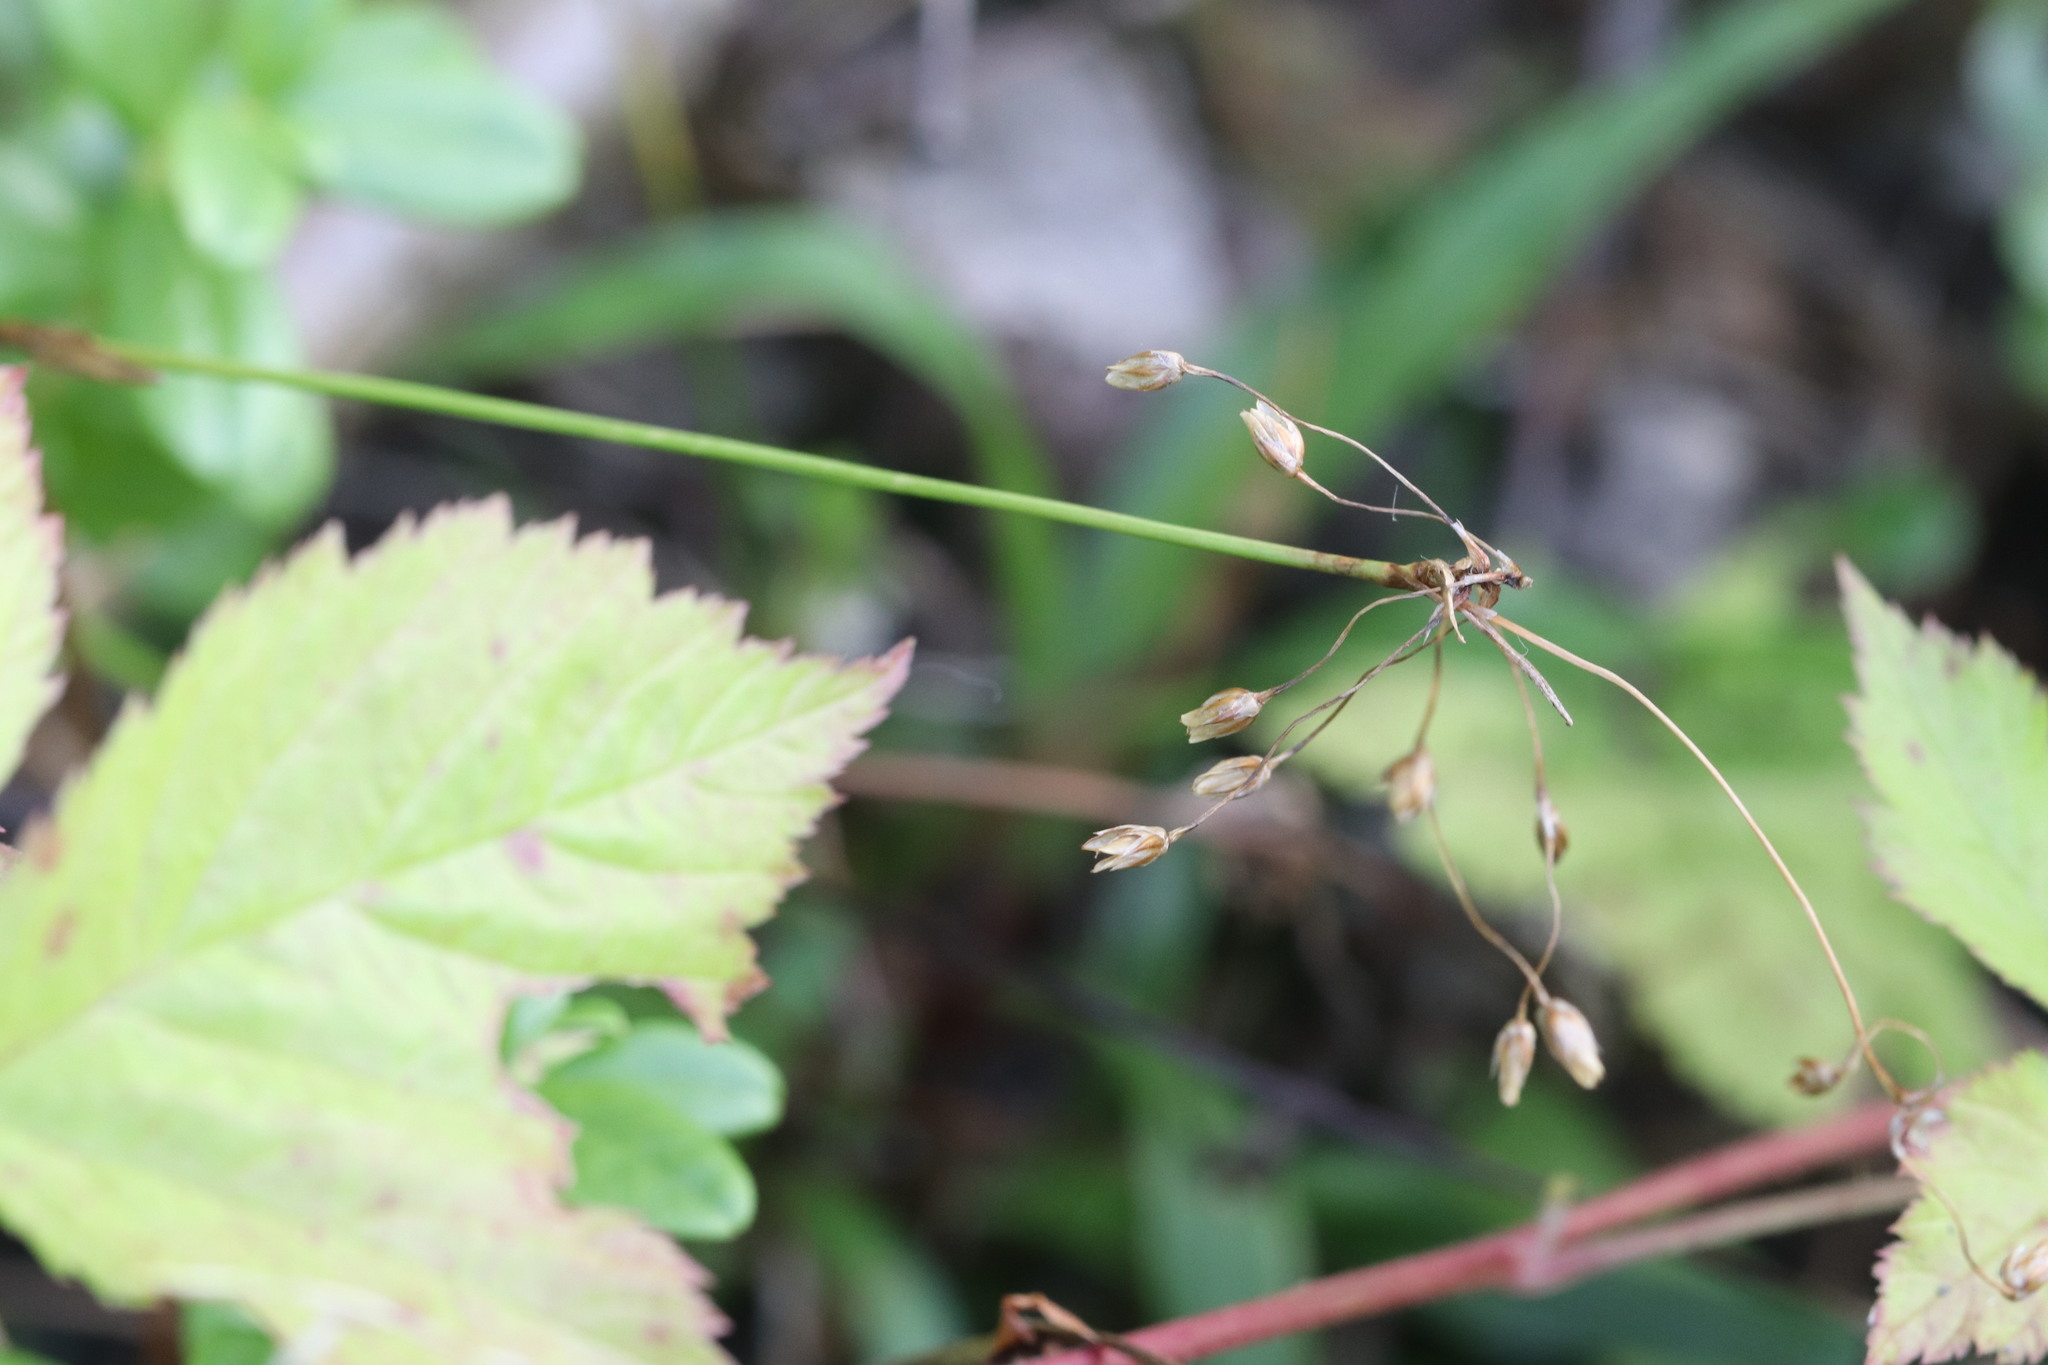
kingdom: Plantae
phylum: Tracheophyta
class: Liliopsida
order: Poales
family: Juncaceae
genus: Luzula
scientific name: Luzula pilosa
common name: Hairy wood-rush
